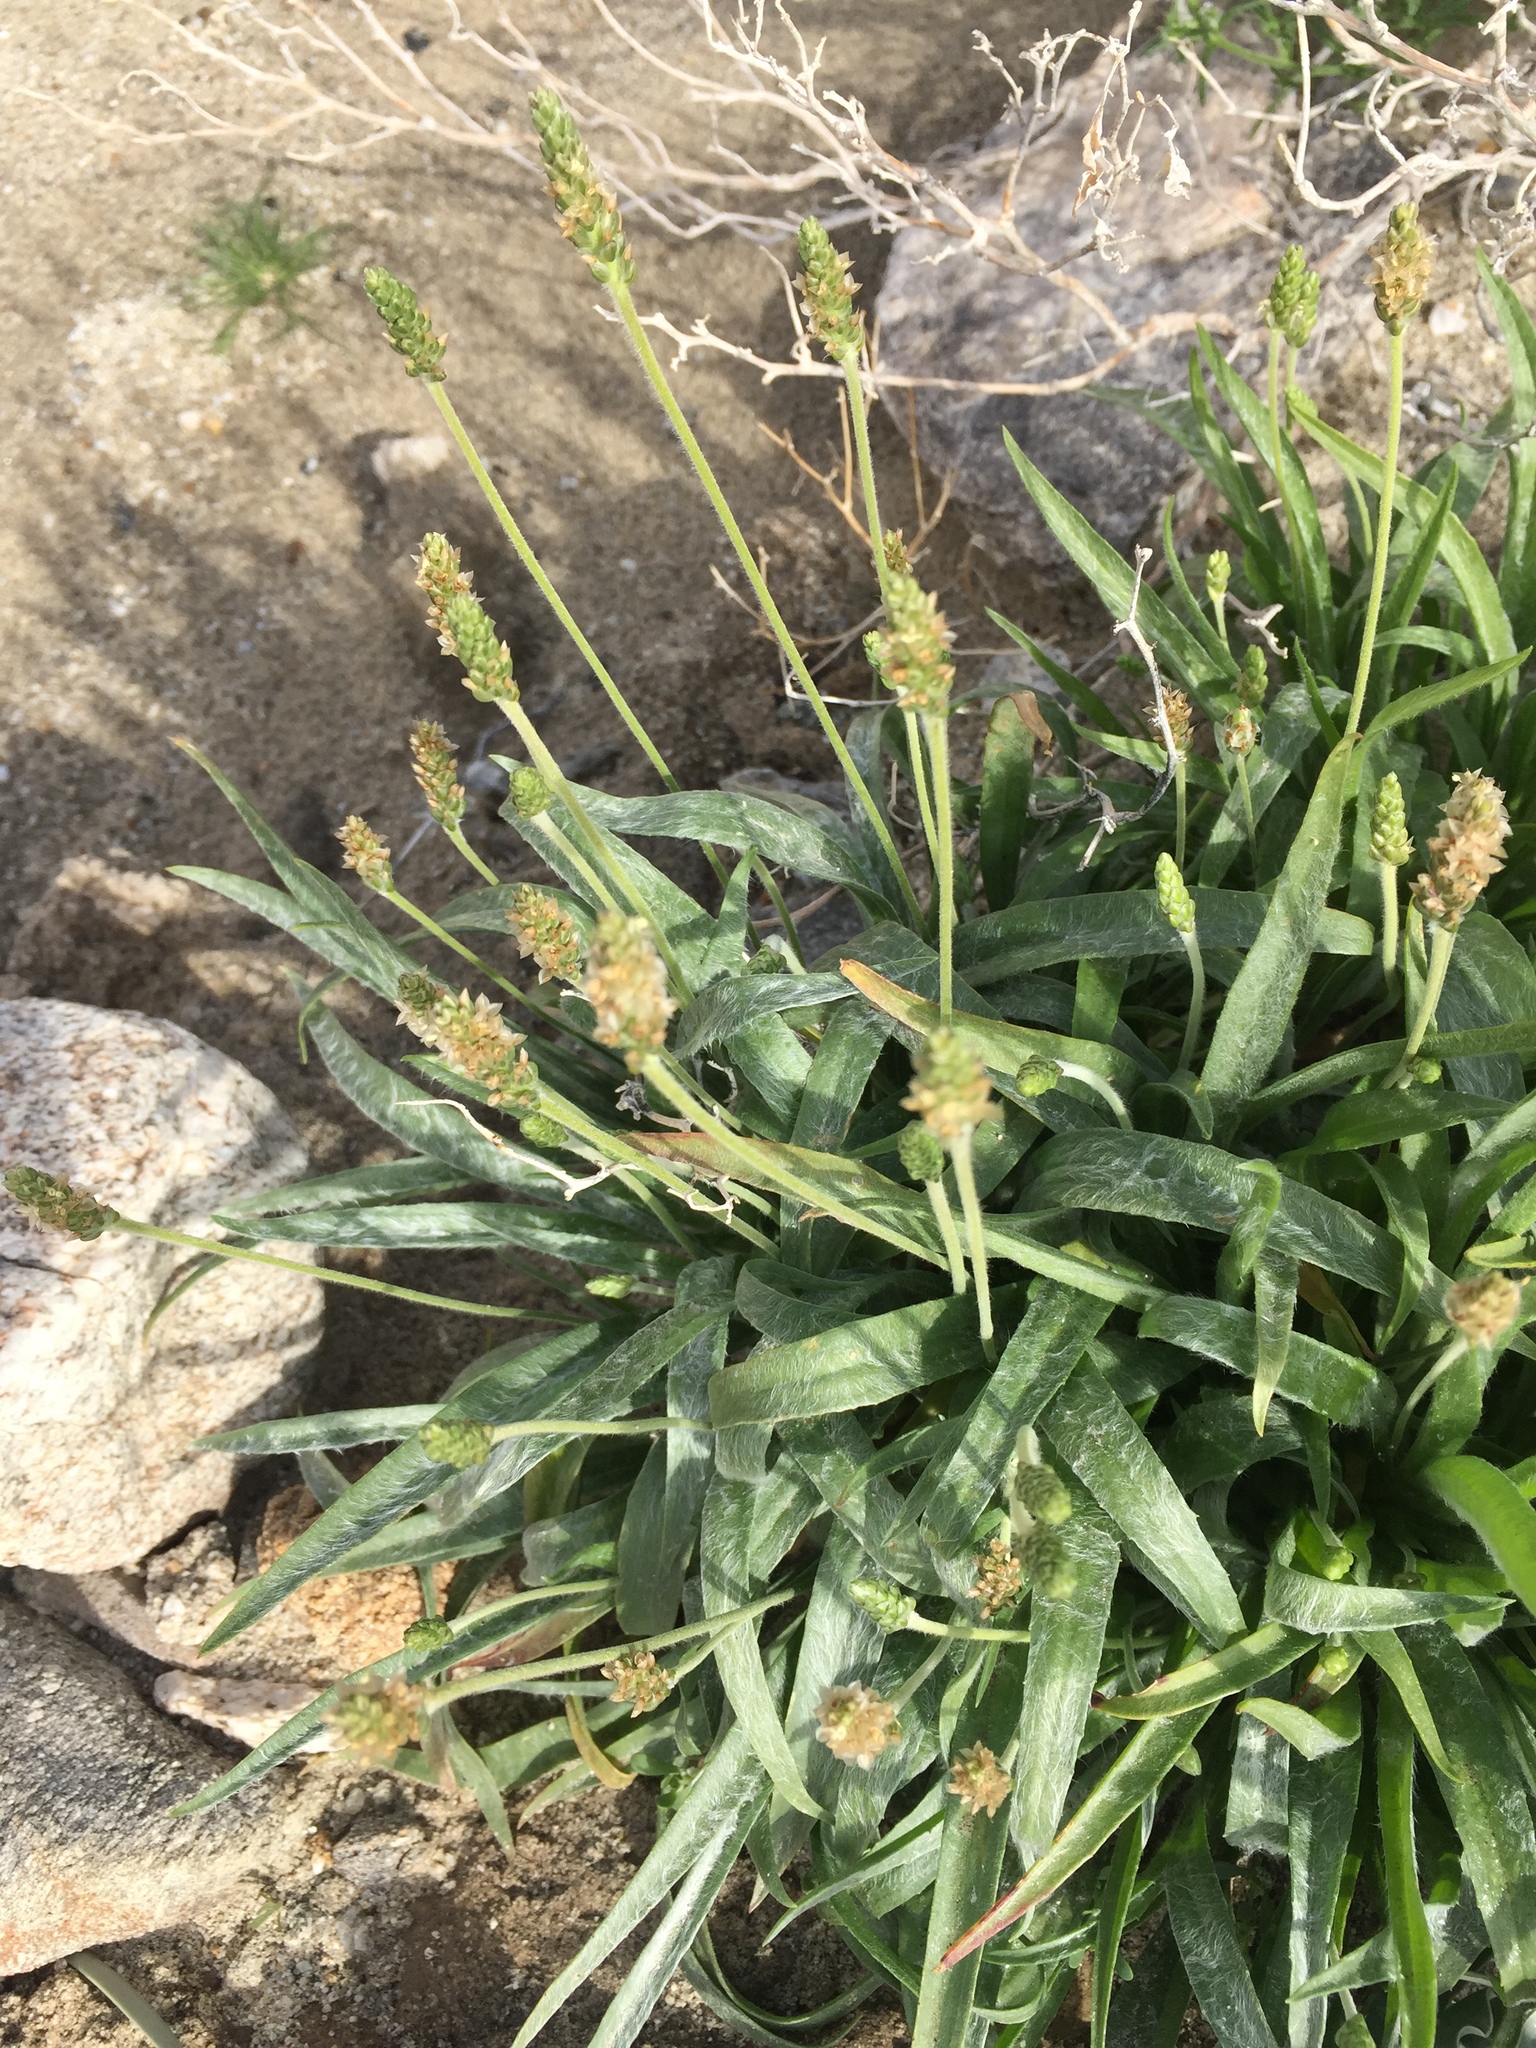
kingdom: Plantae
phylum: Tracheophyta
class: Magnoliopsida
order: Lamiales
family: Plantaginaceae
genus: Plantago
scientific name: Plantago ovata
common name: Blond plantain
